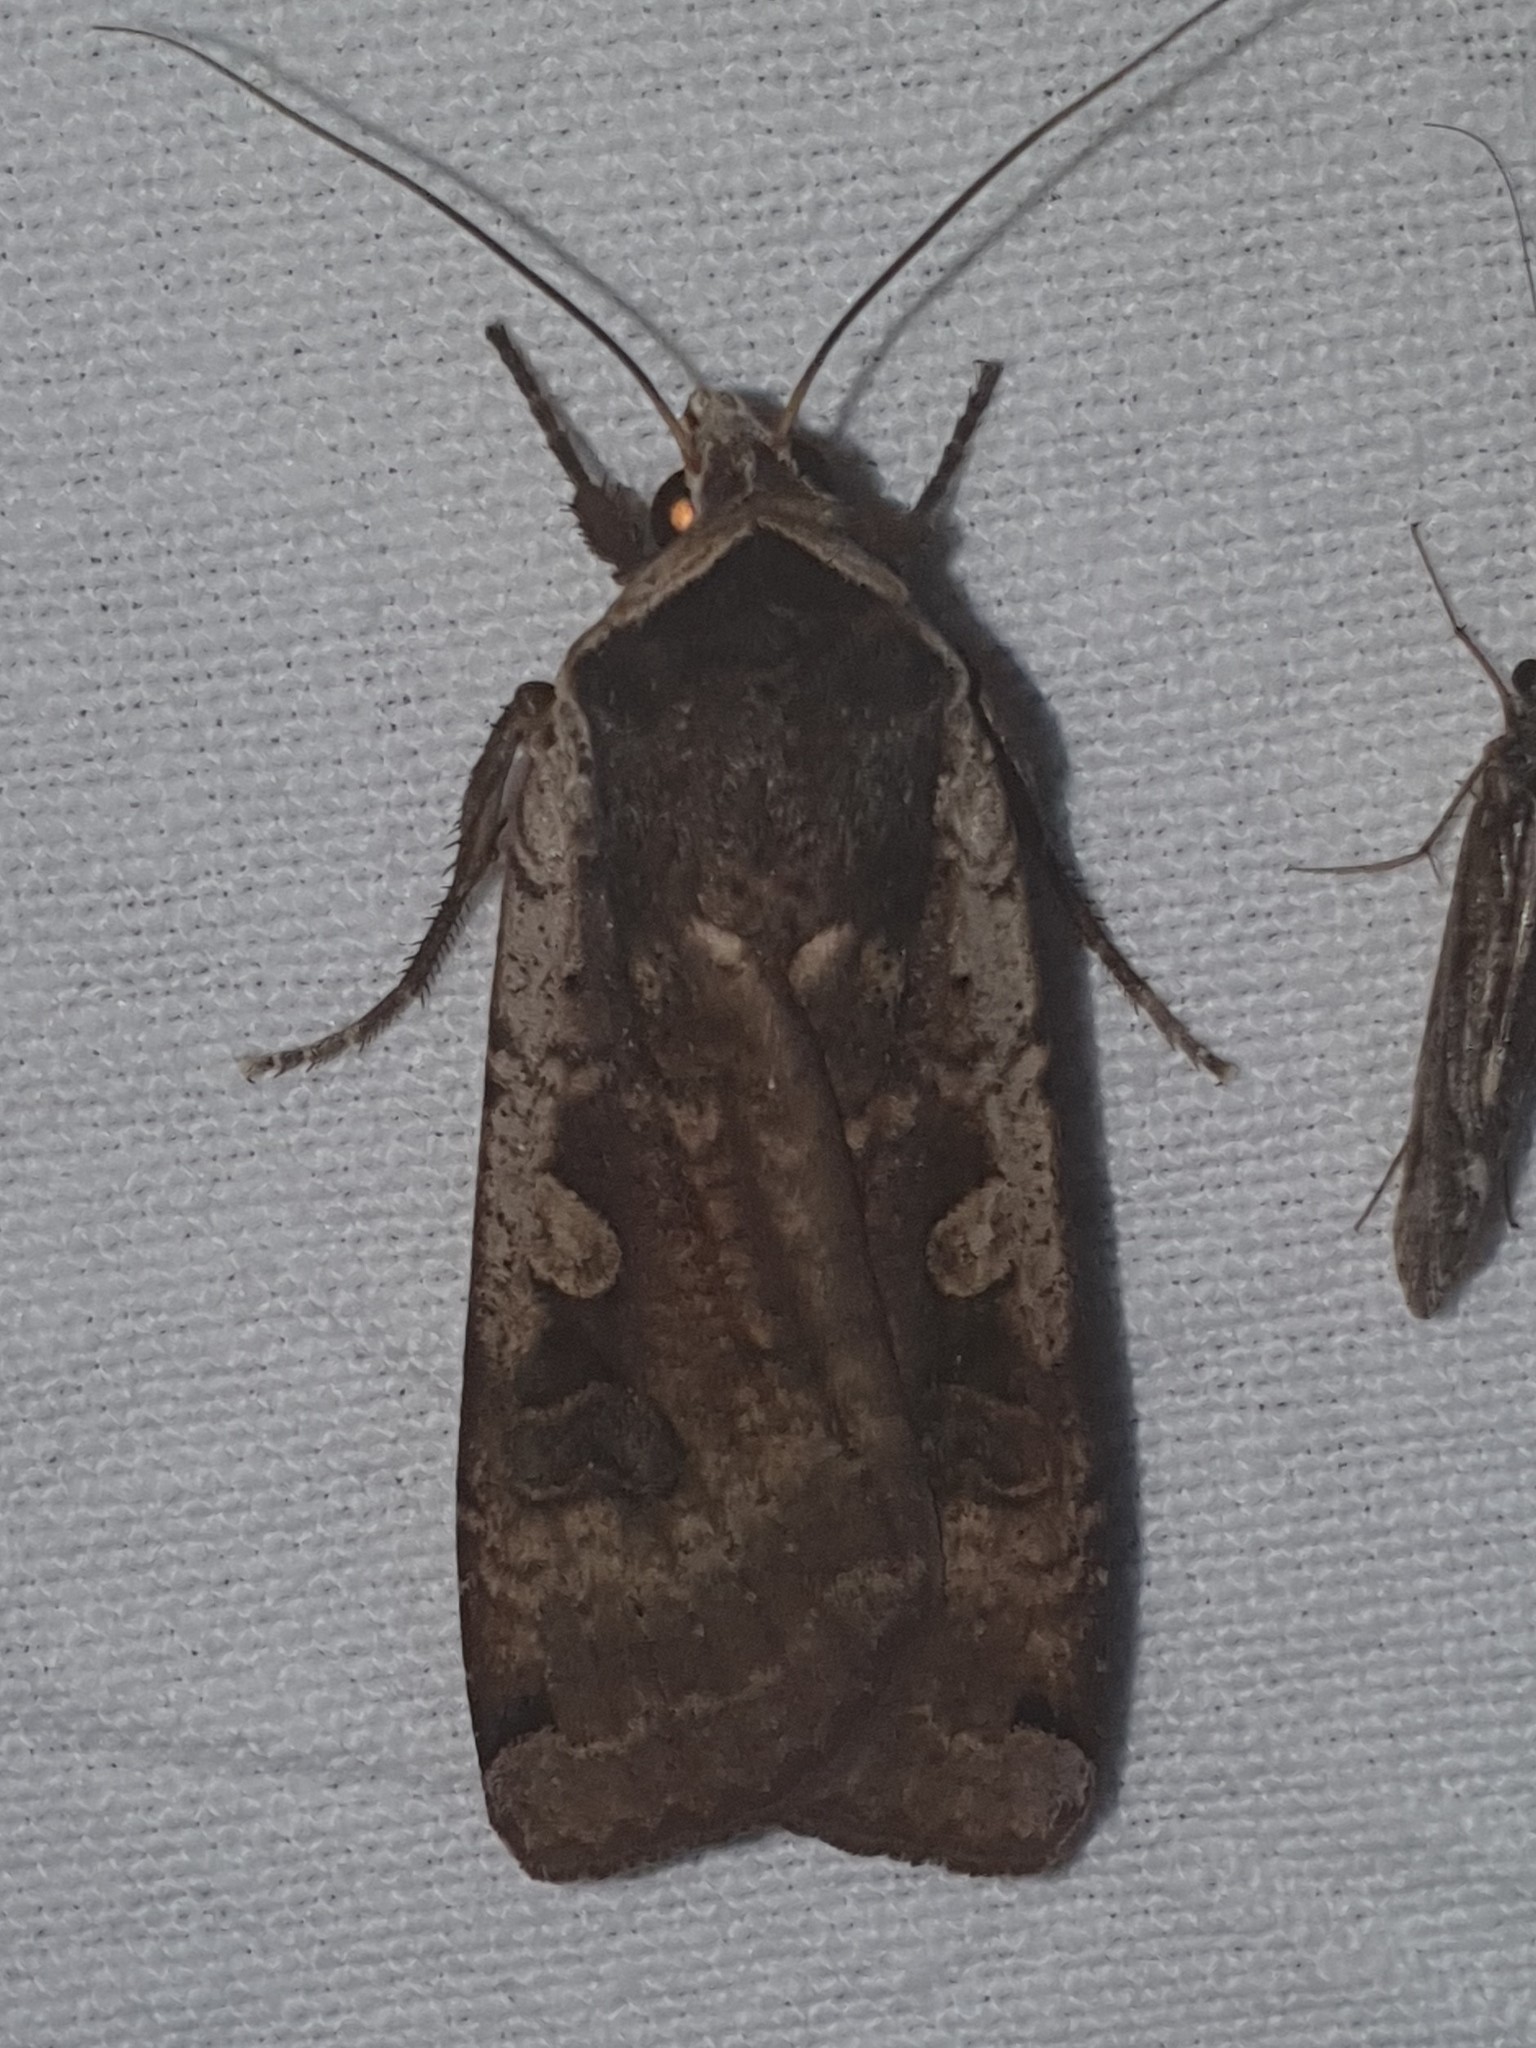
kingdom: Animalia
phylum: Arthropoda
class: Insecta
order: Lepidoptera
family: Noctuidae
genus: Noctua
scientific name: Noctua pronuba
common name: Large yellow underwing
